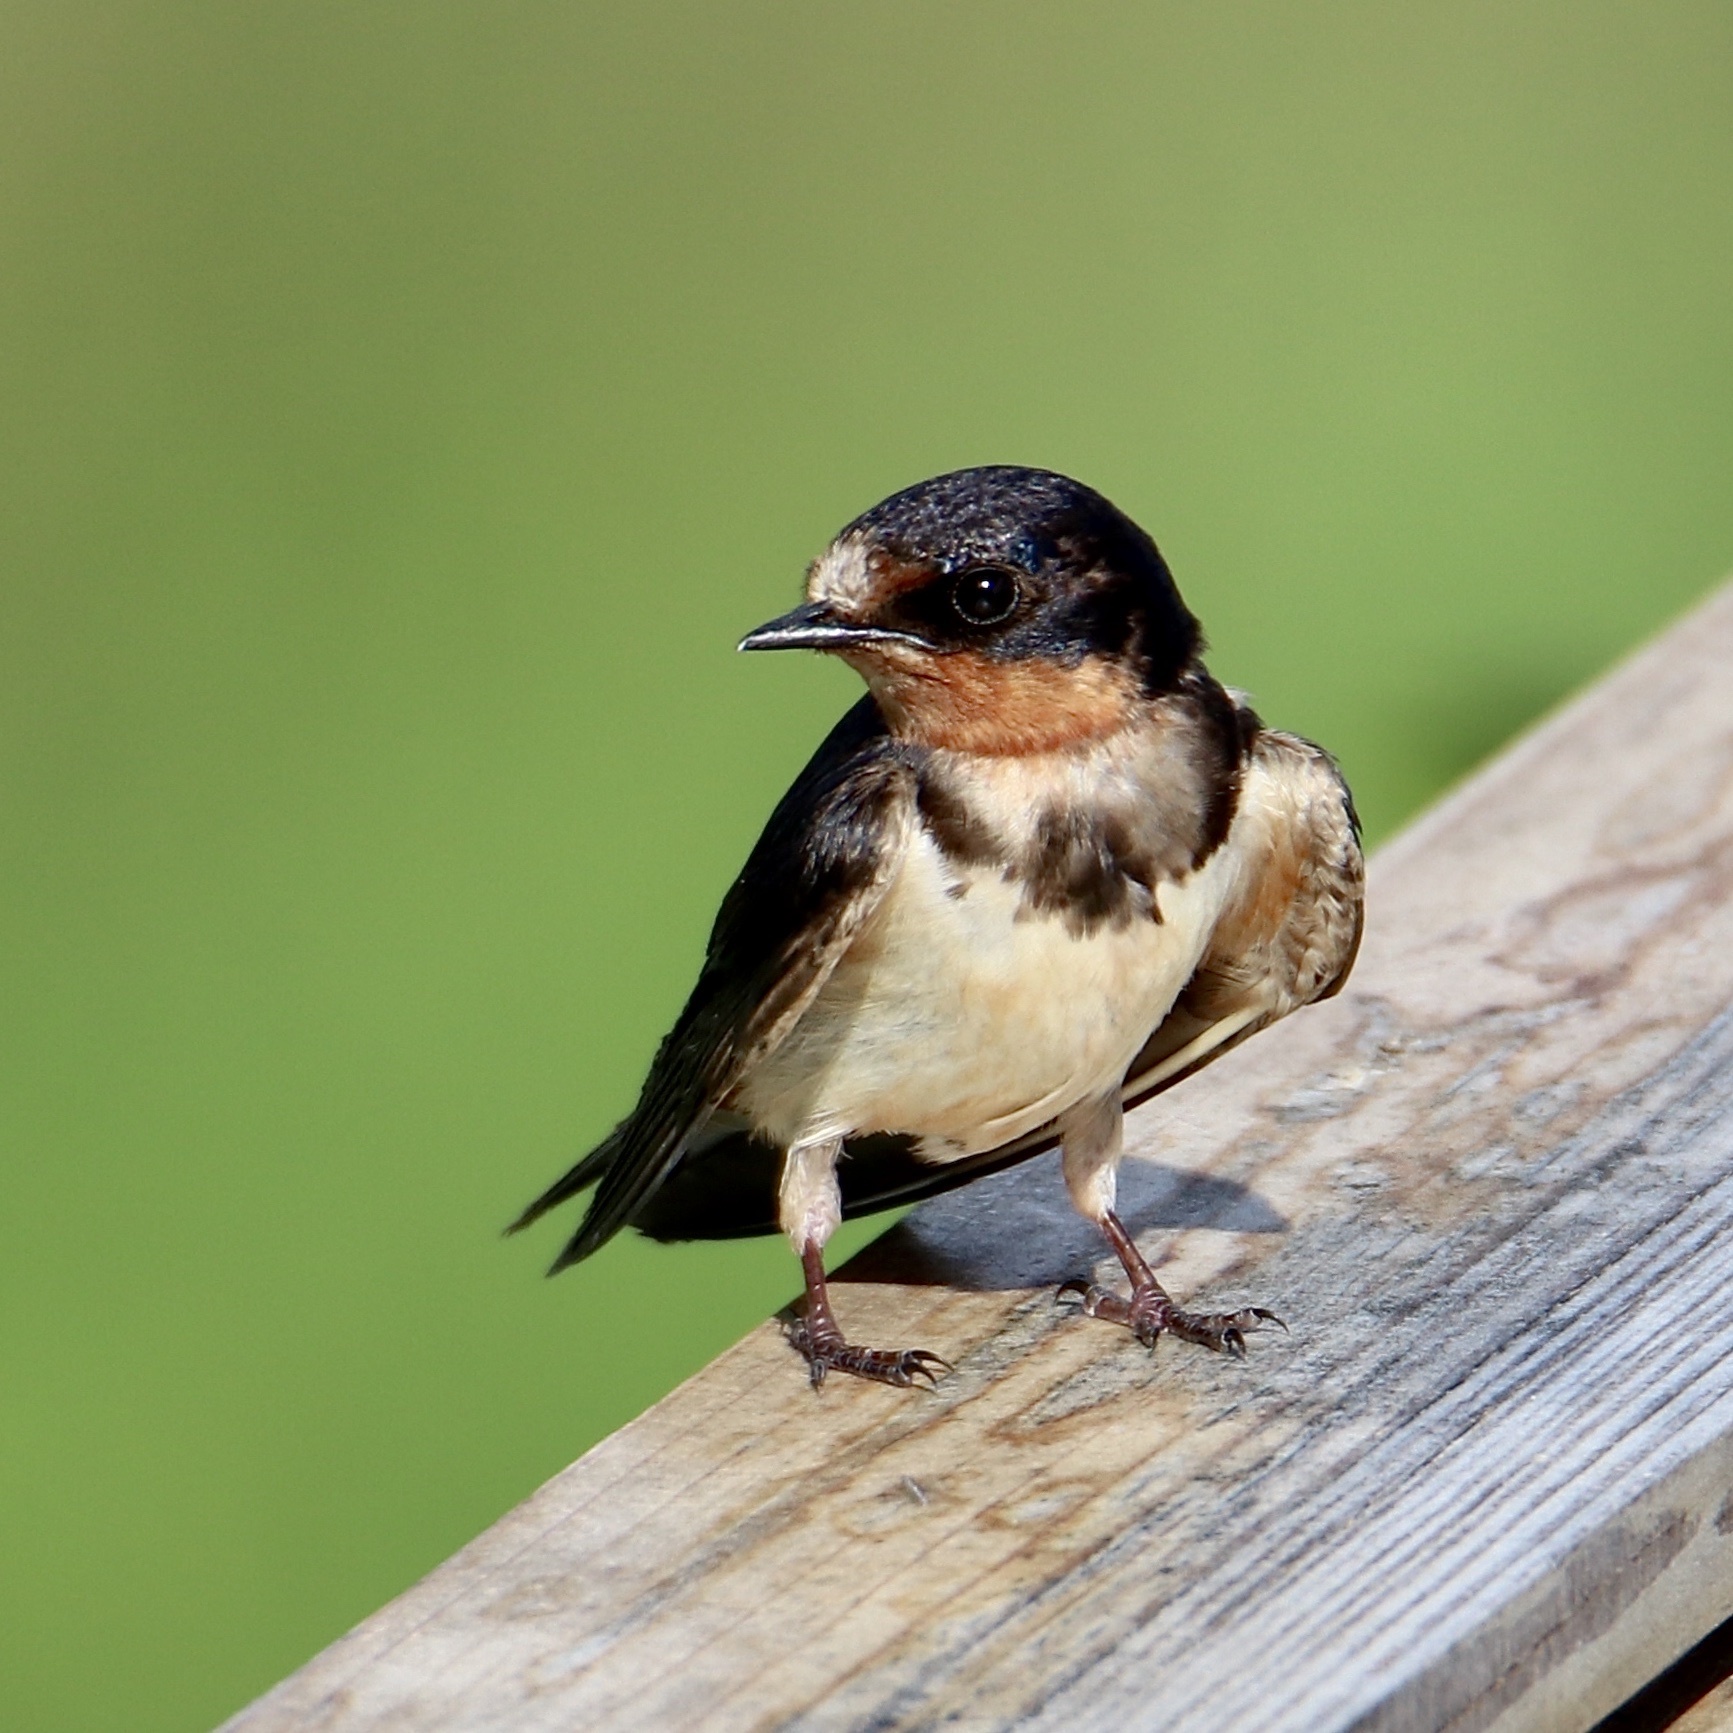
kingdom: Animalia
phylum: Chordata
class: Aves
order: Passeriformes
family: Hirundinidae
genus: Hirundo
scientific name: Hirundo rustica
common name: Barn swallow
